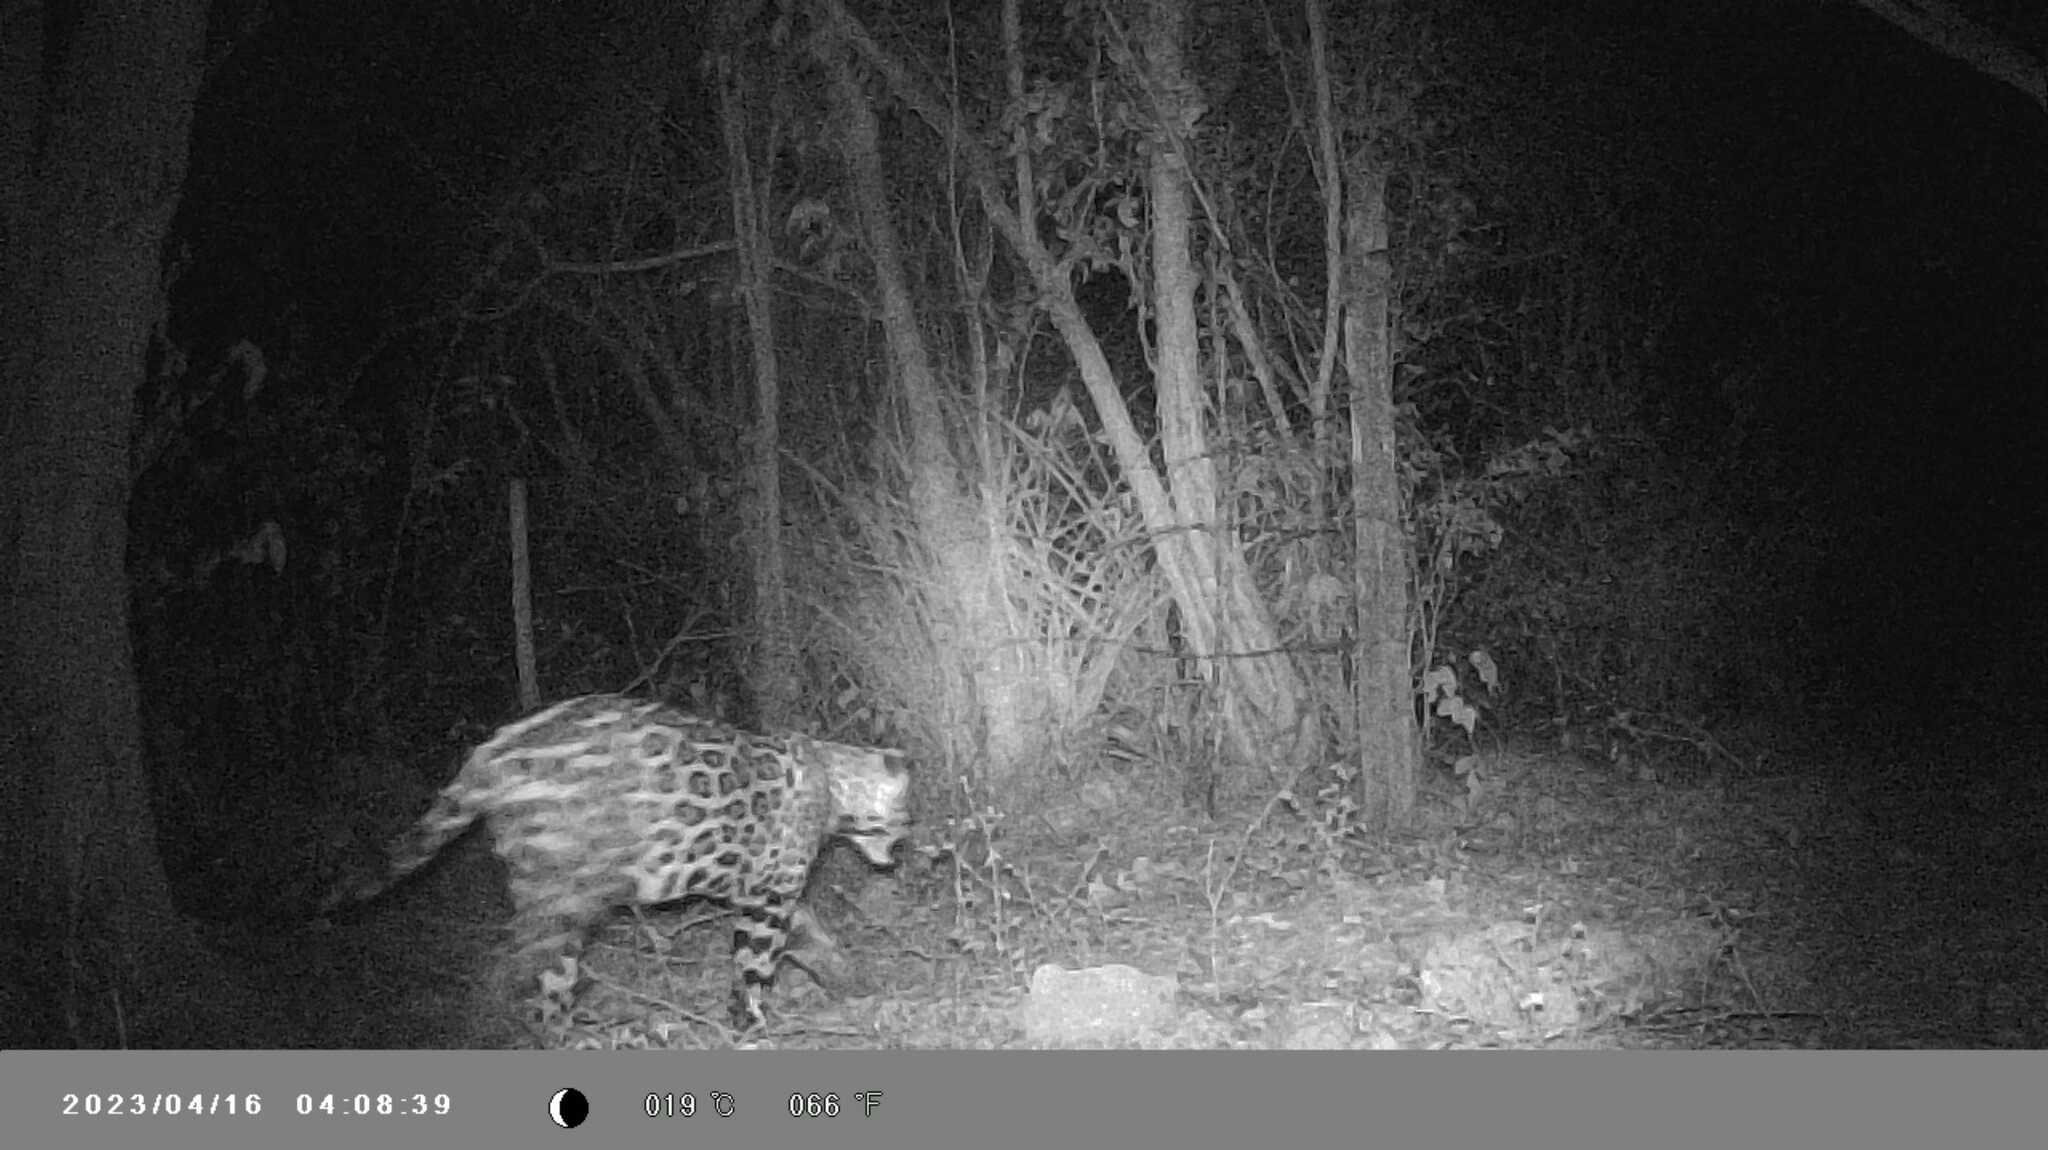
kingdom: Animalia
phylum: Chordata
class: Mammalia
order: Carnivora
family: Felidae
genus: Panthera
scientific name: Panthera onca
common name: Jaguar
